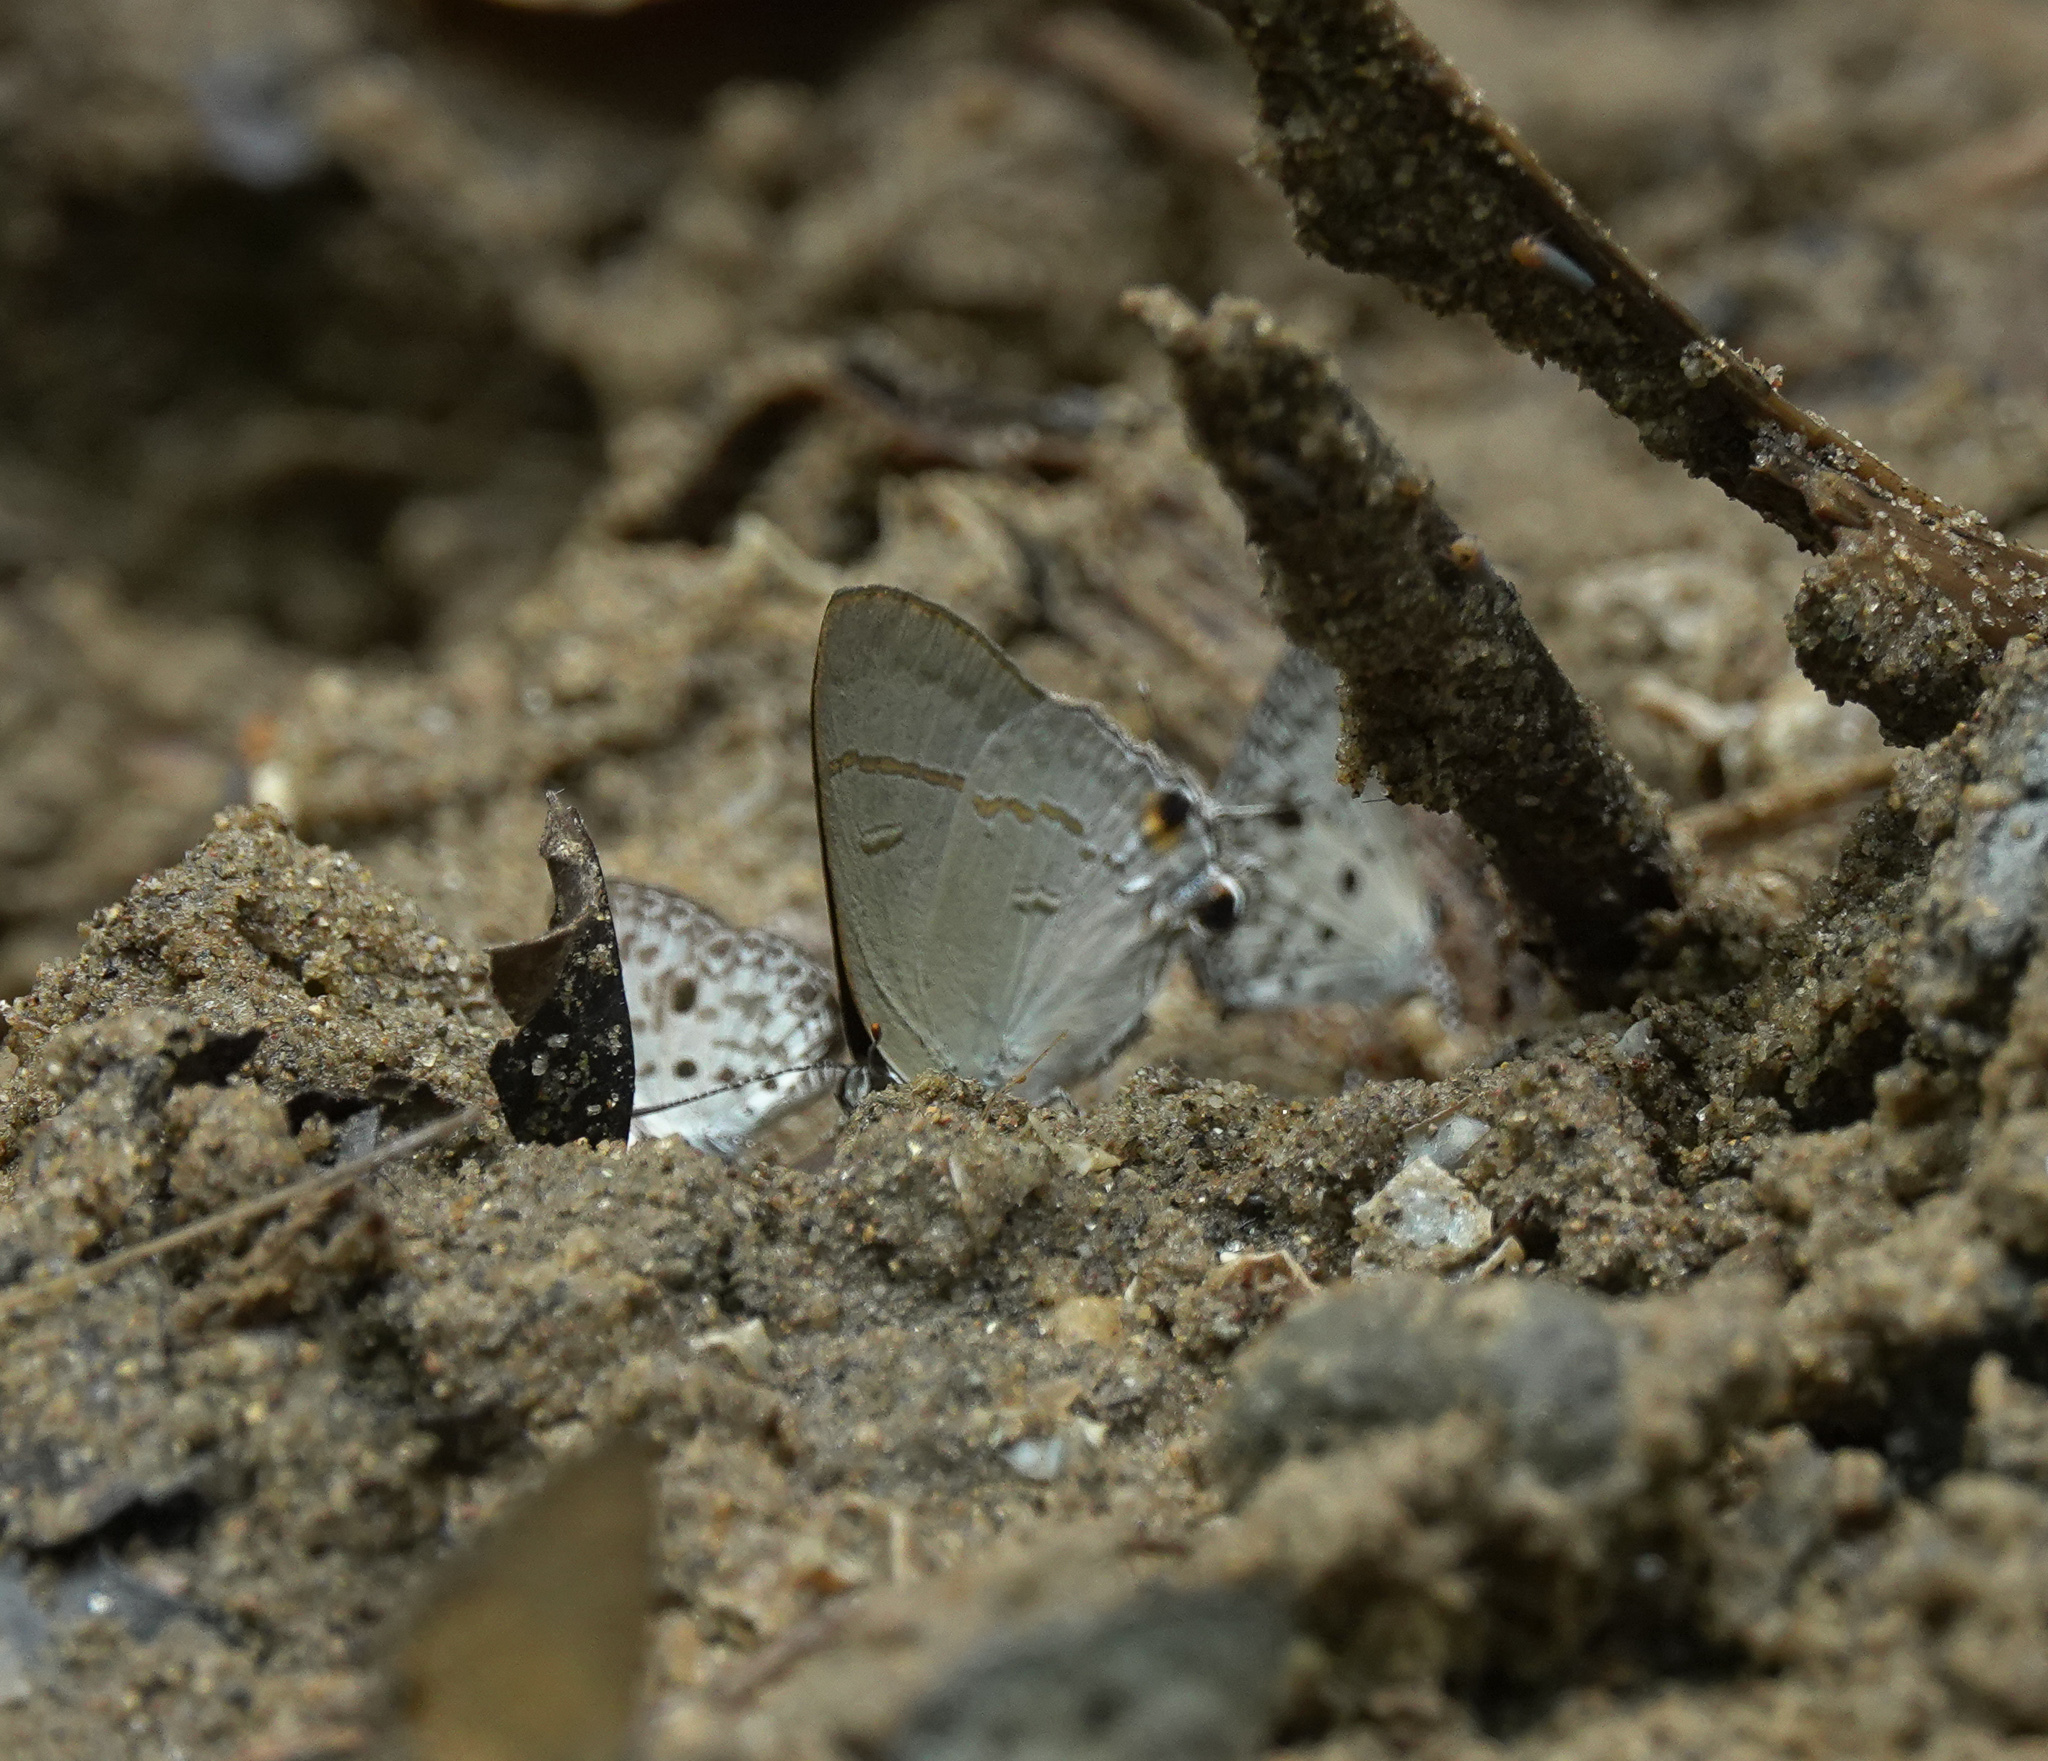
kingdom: Animalia
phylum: Arthropoda
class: Insecta
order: Lepidoptera
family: Lycaenidae
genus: Hypolycaena
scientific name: Hypolycaena erylus
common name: Common tit
